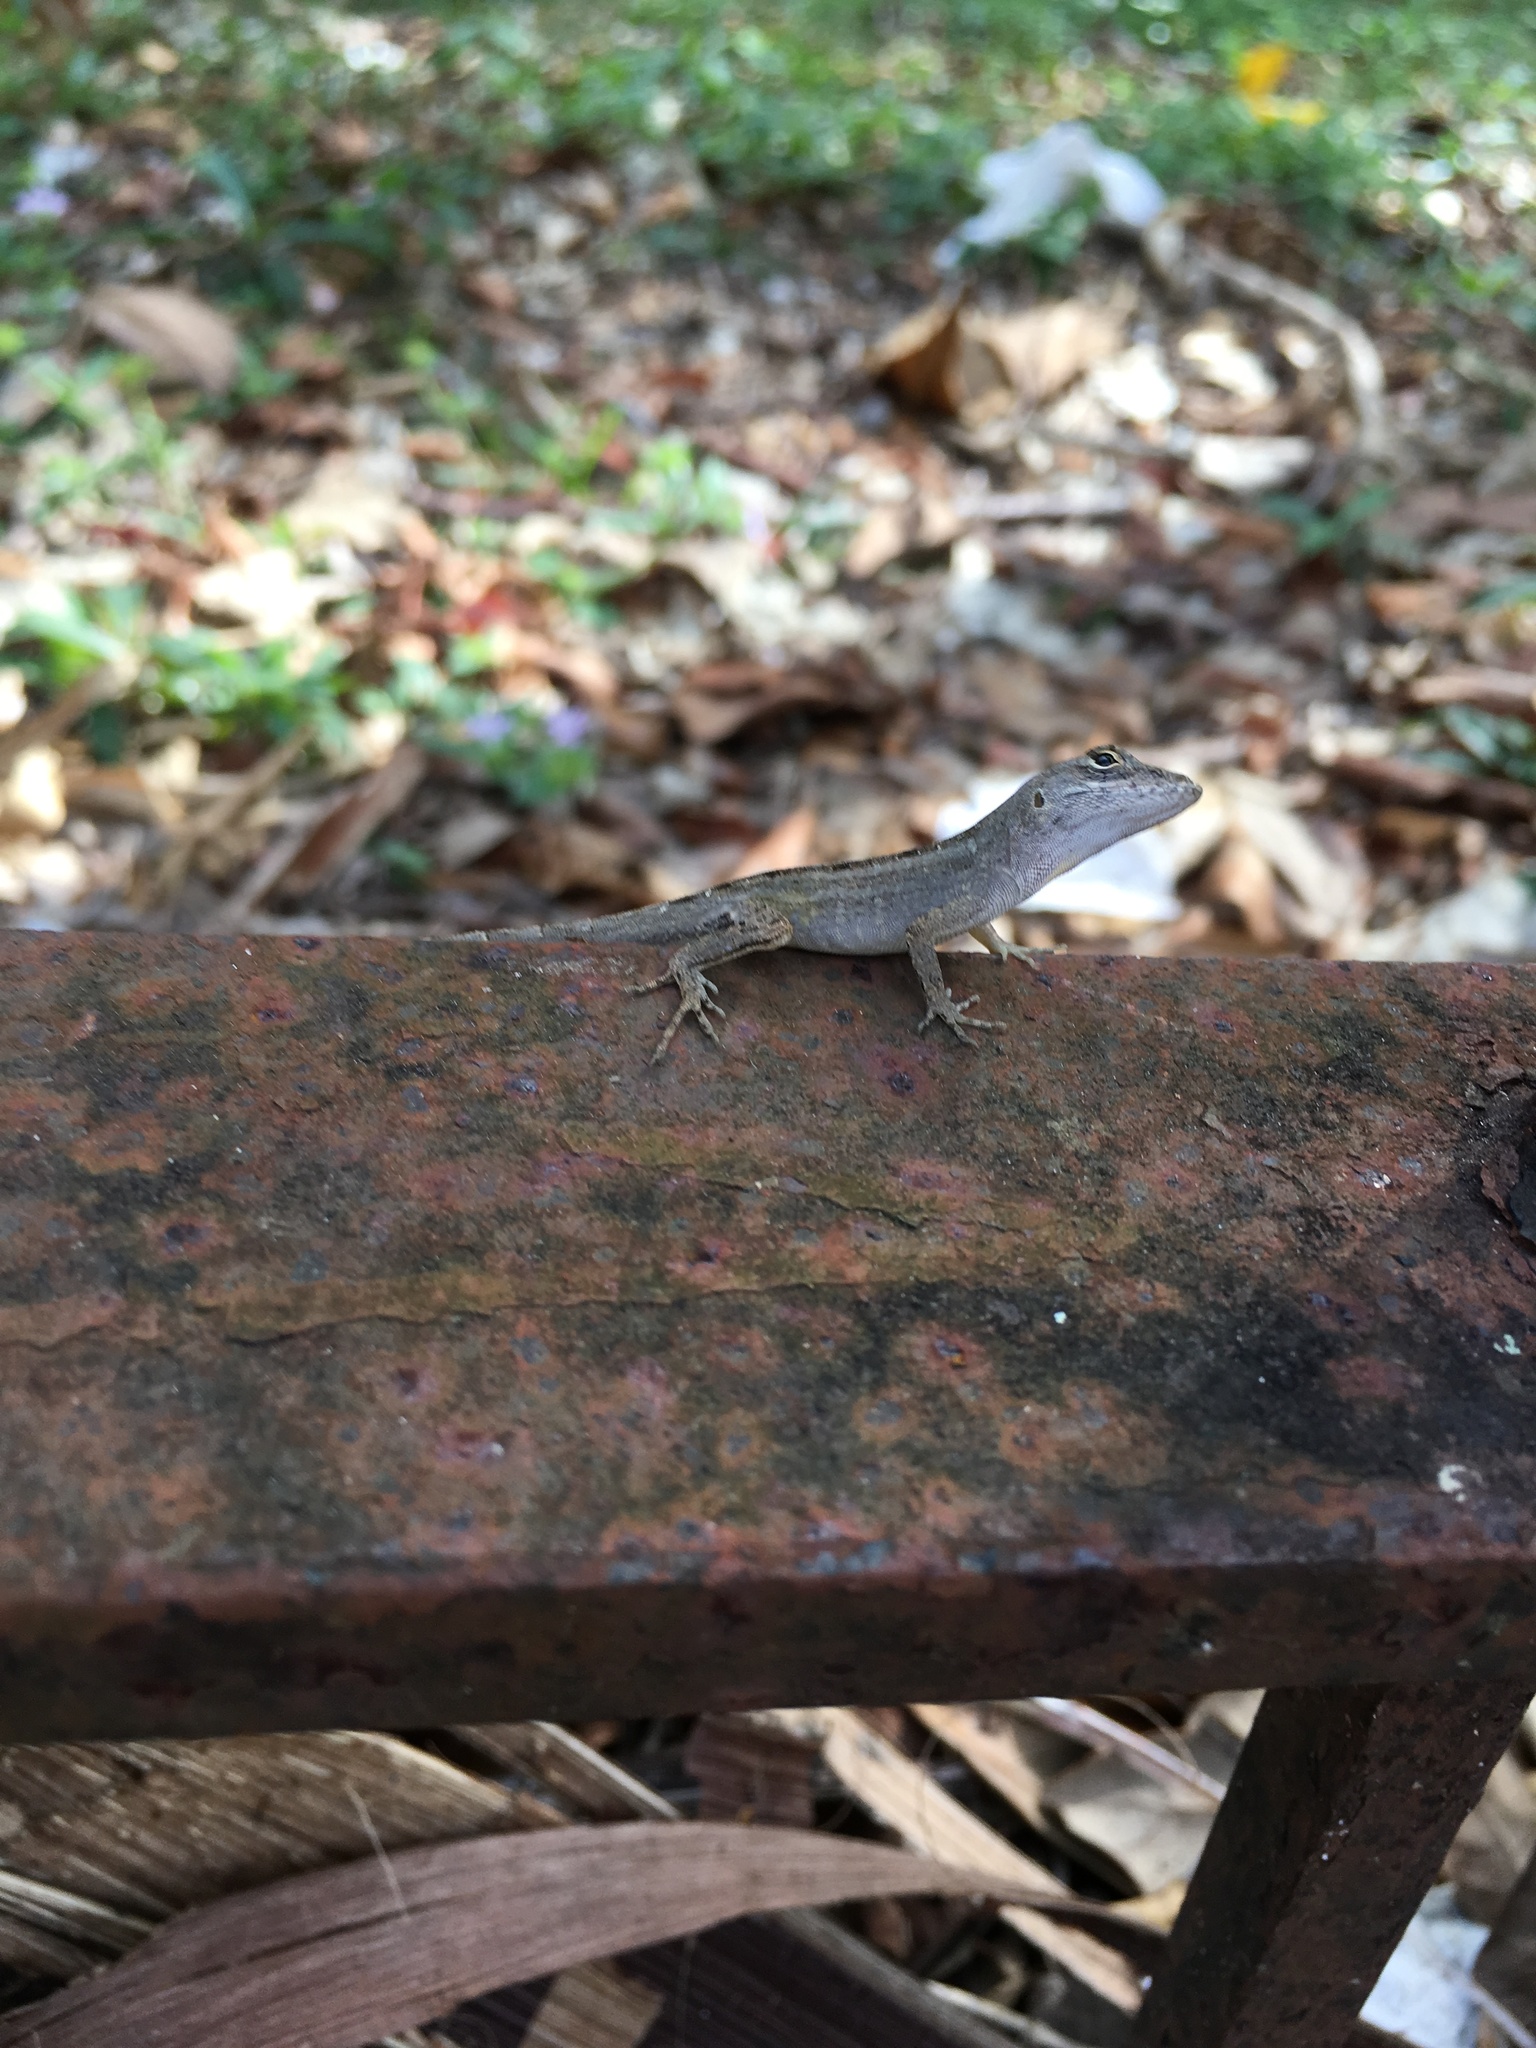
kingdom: Animalia
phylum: Chordata
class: Squamata
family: Dactyloidae
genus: Anolis
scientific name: Anolis sagrei
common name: Brown anole
